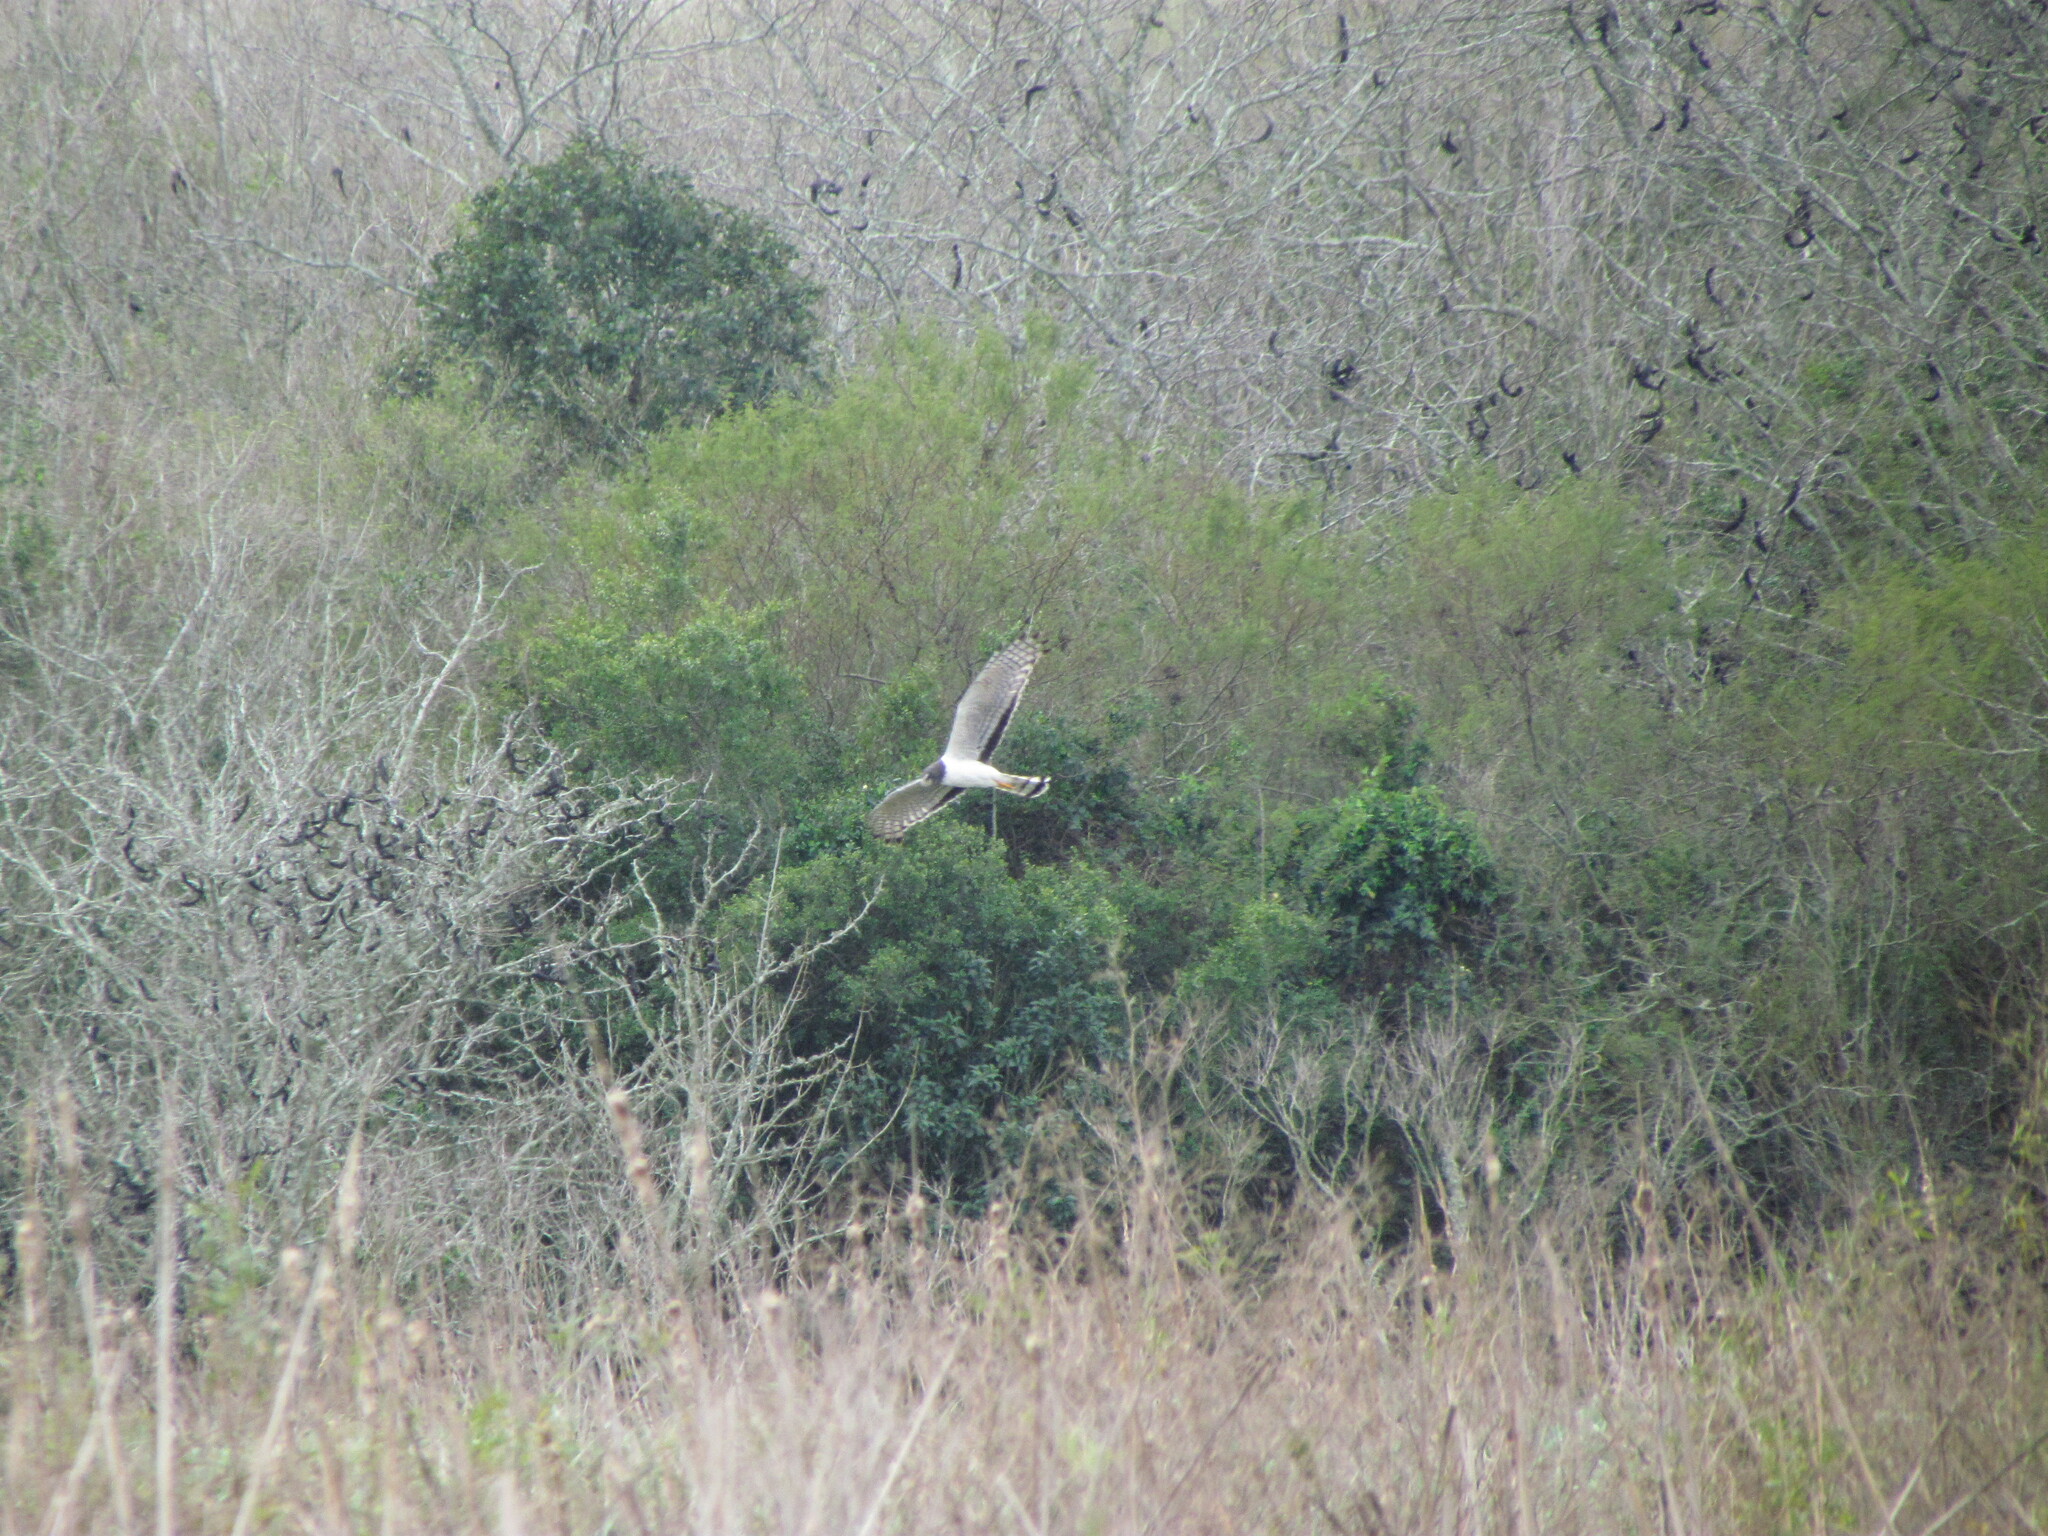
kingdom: Animalia
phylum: Chordata
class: Aves
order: Accipitriformes
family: Accipitridae
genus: Circus
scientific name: Circus buffoni
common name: Long-winged harrier
